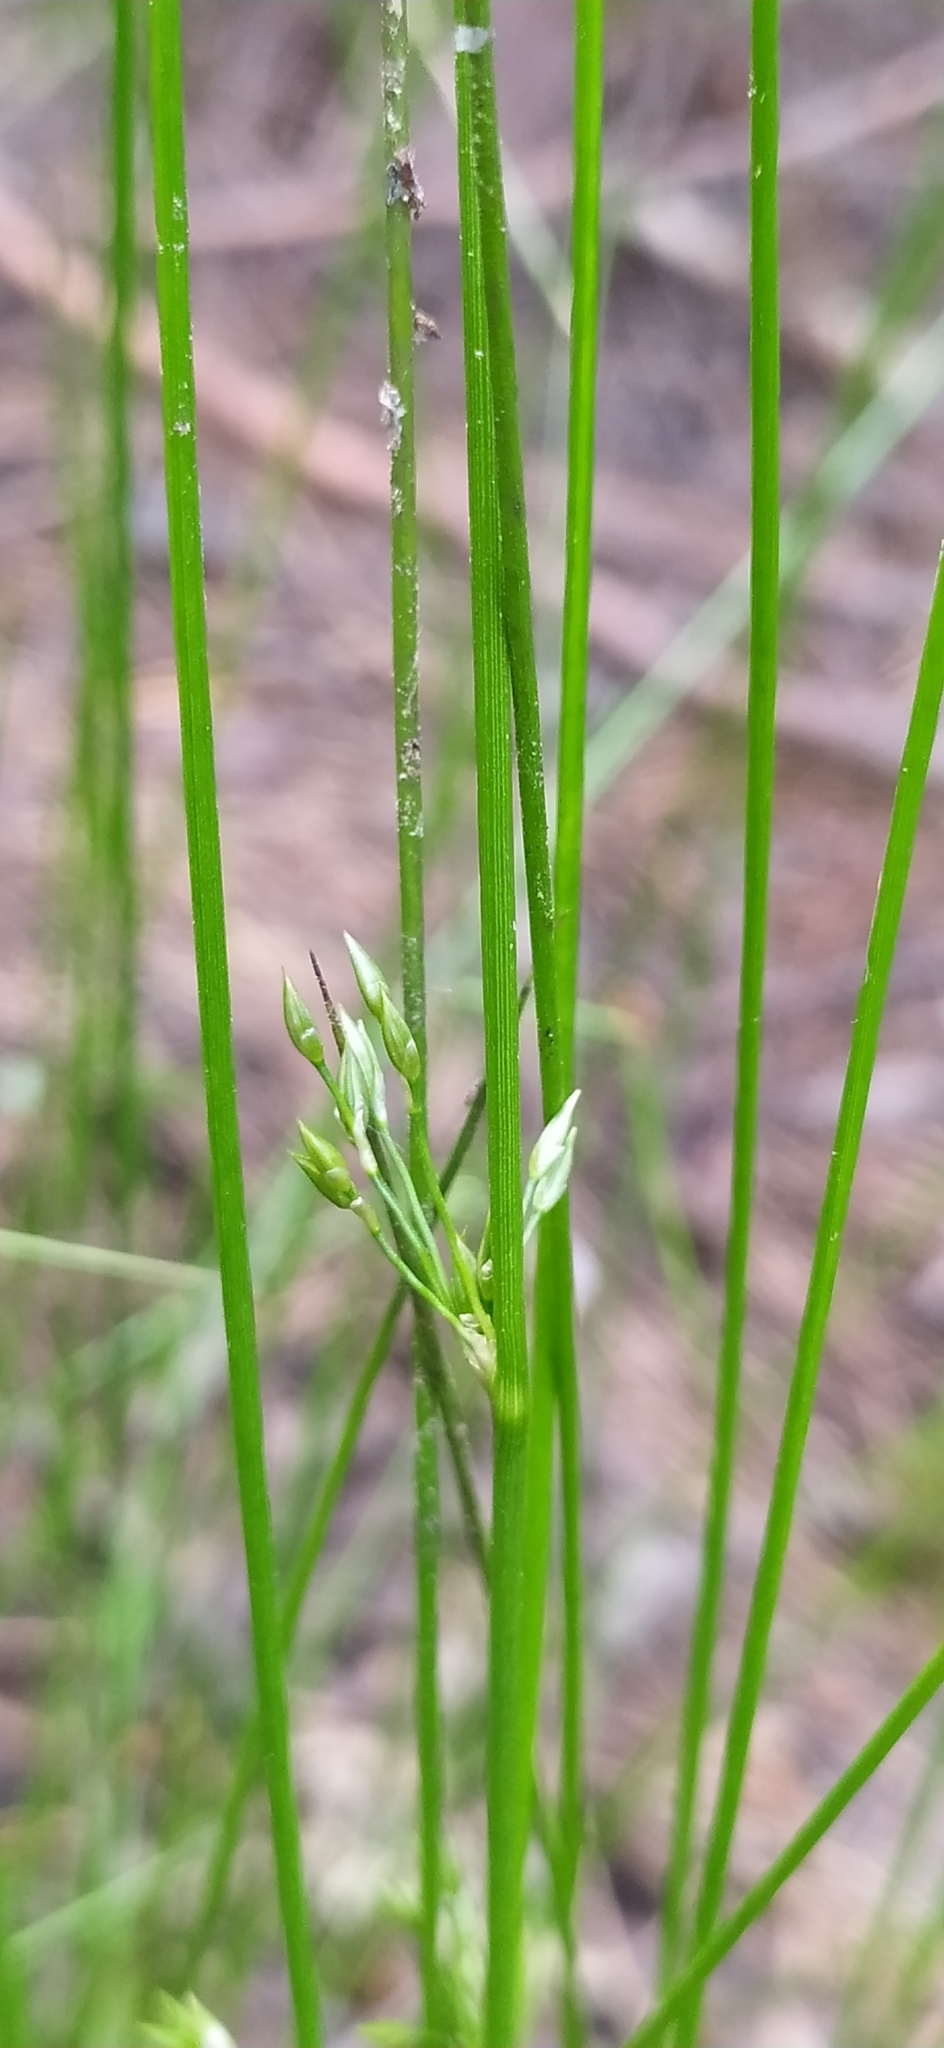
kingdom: Plantae
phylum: Tracheophyta
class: Liliopsida
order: Poales
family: Juncaceae
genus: Juncus
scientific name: Juncus filiformis
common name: Thread rush
